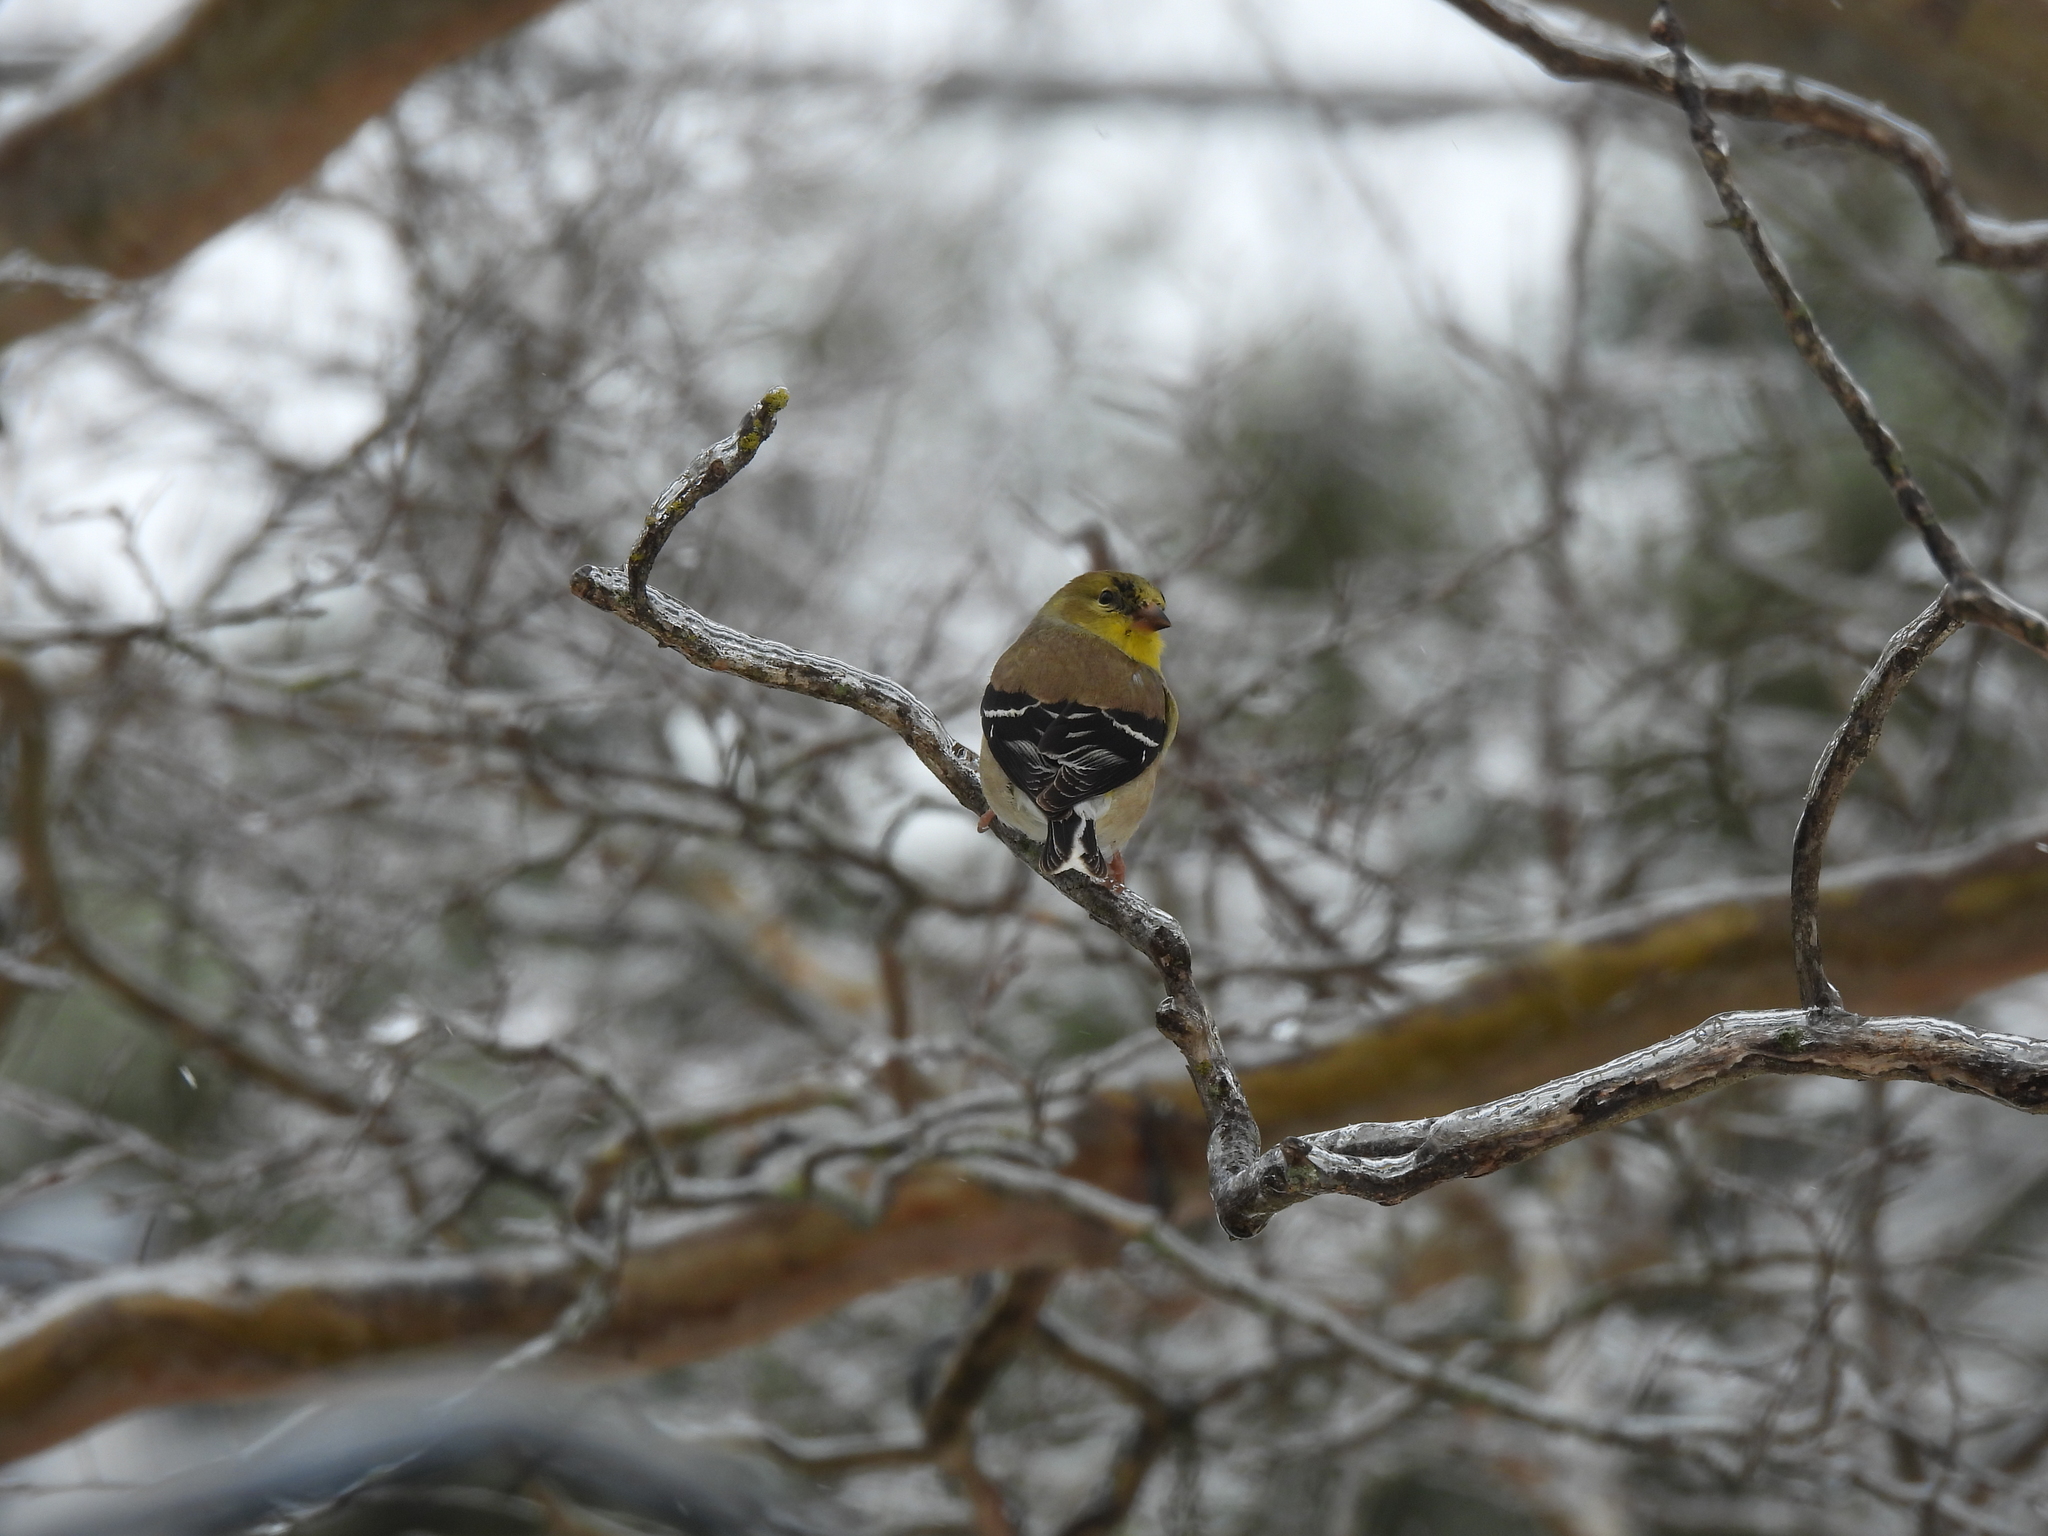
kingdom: Animalia
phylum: Chordata
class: Aves
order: Passeriformes
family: Fringillidae
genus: Spinus
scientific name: Spinus tristis
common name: American goldfinch
